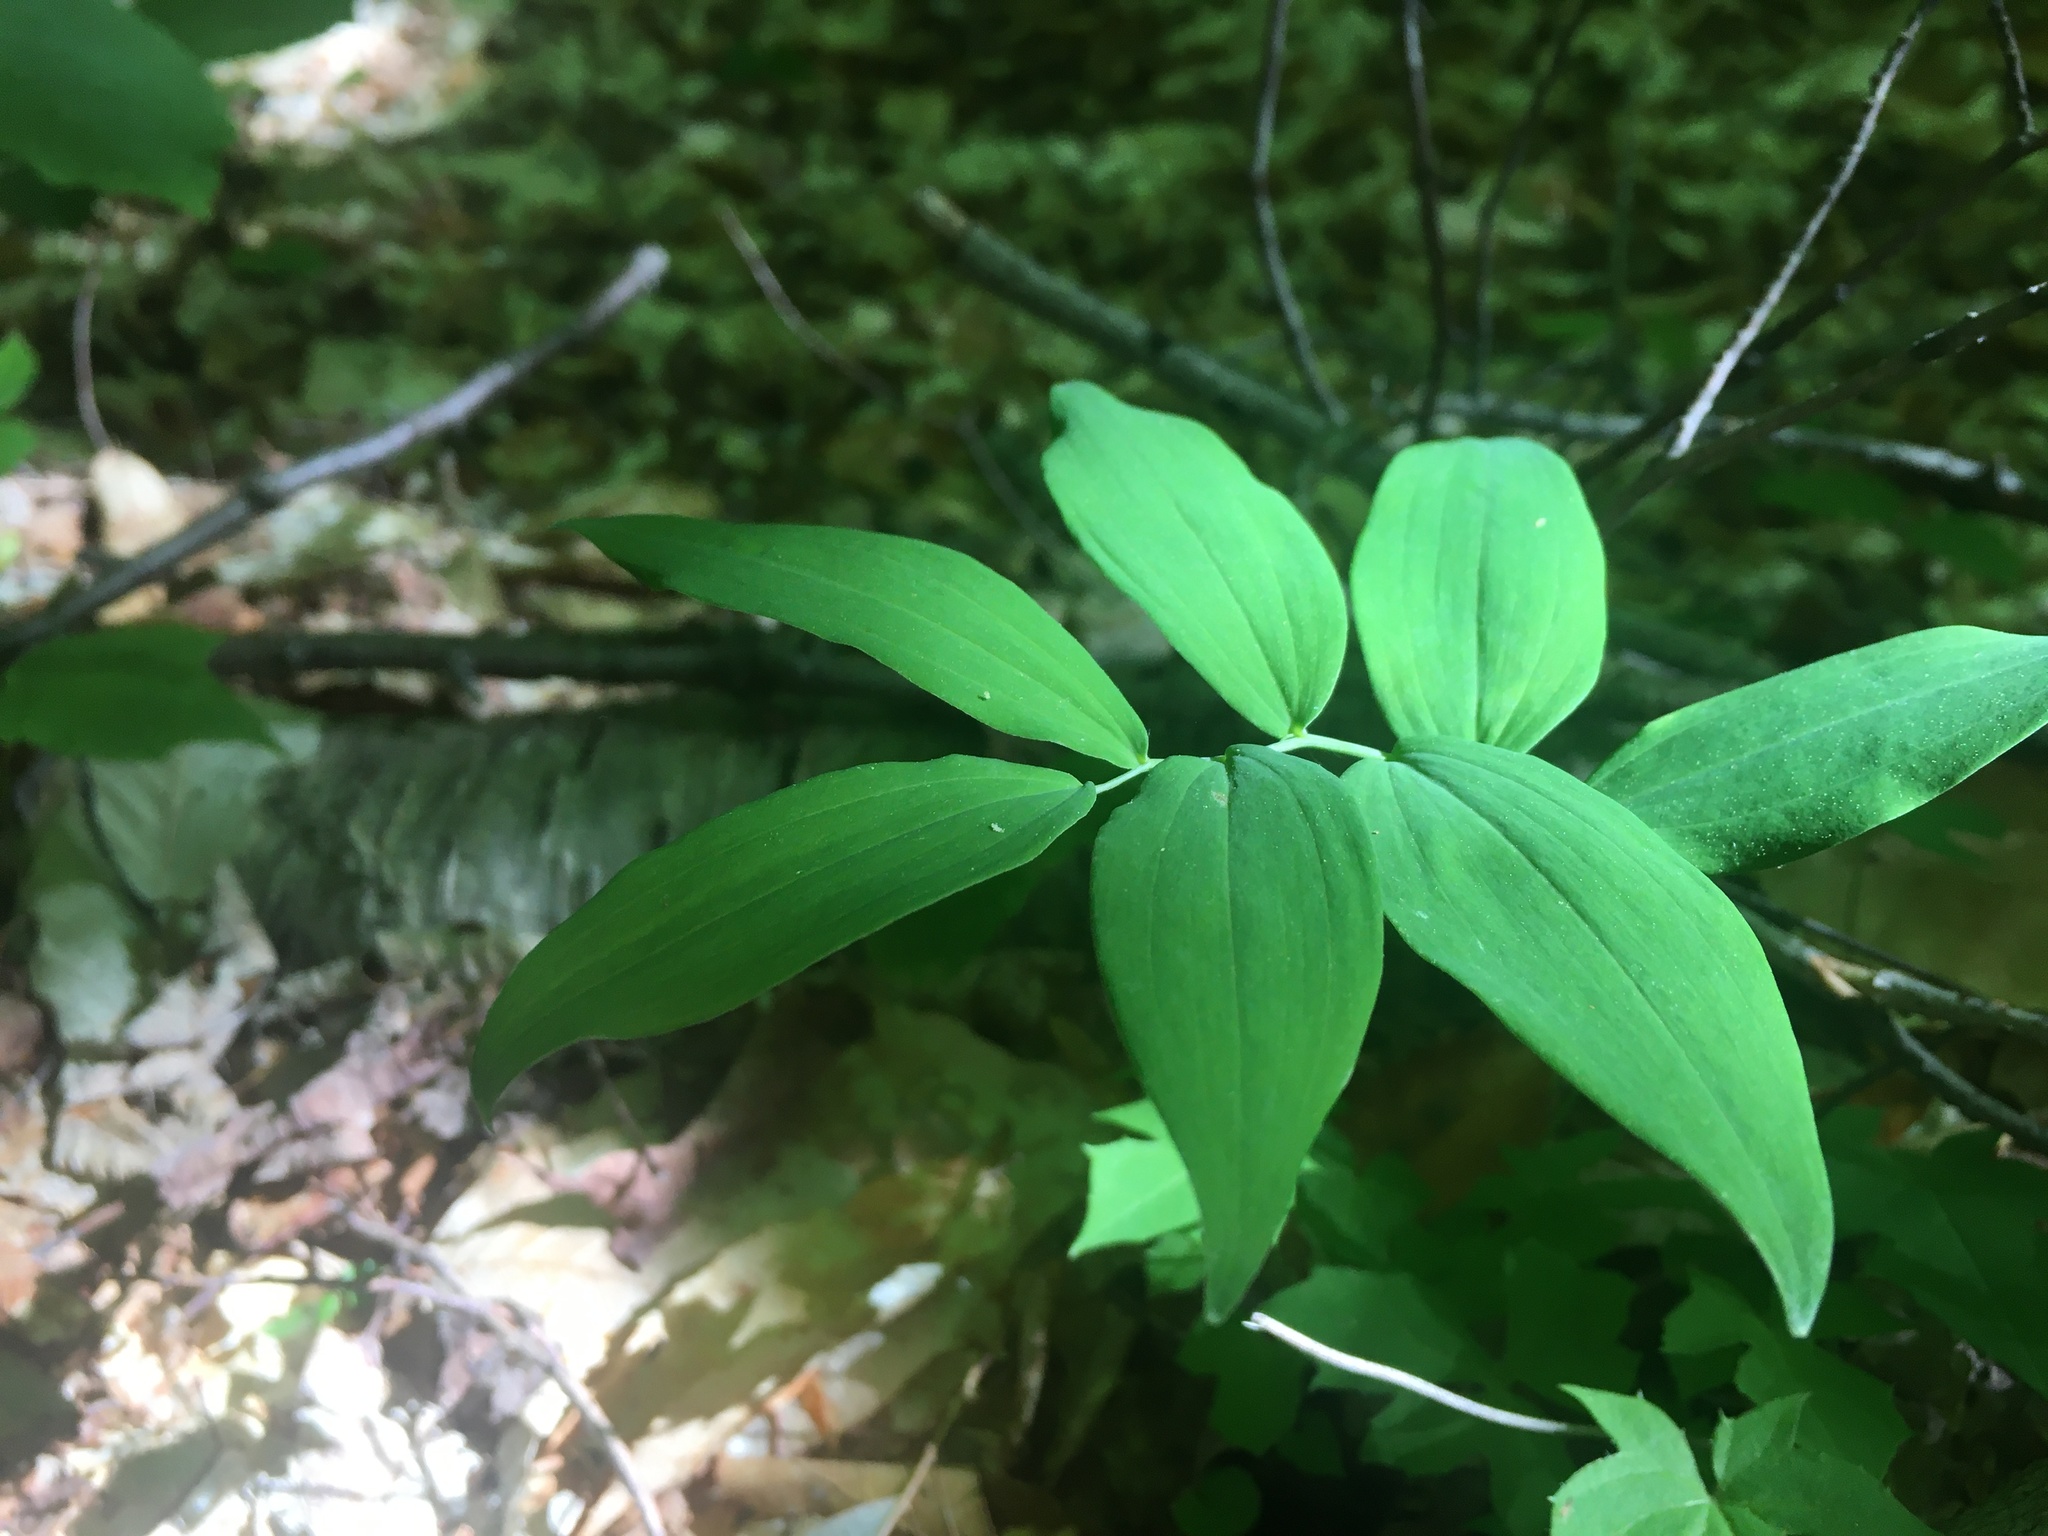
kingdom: Plantae
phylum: Tracheophyta
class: Liliopsida
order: Asparagales
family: Asparagaceae
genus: Polygonatum
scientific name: Polygonatum pubescens
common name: Downy solomon's seal
